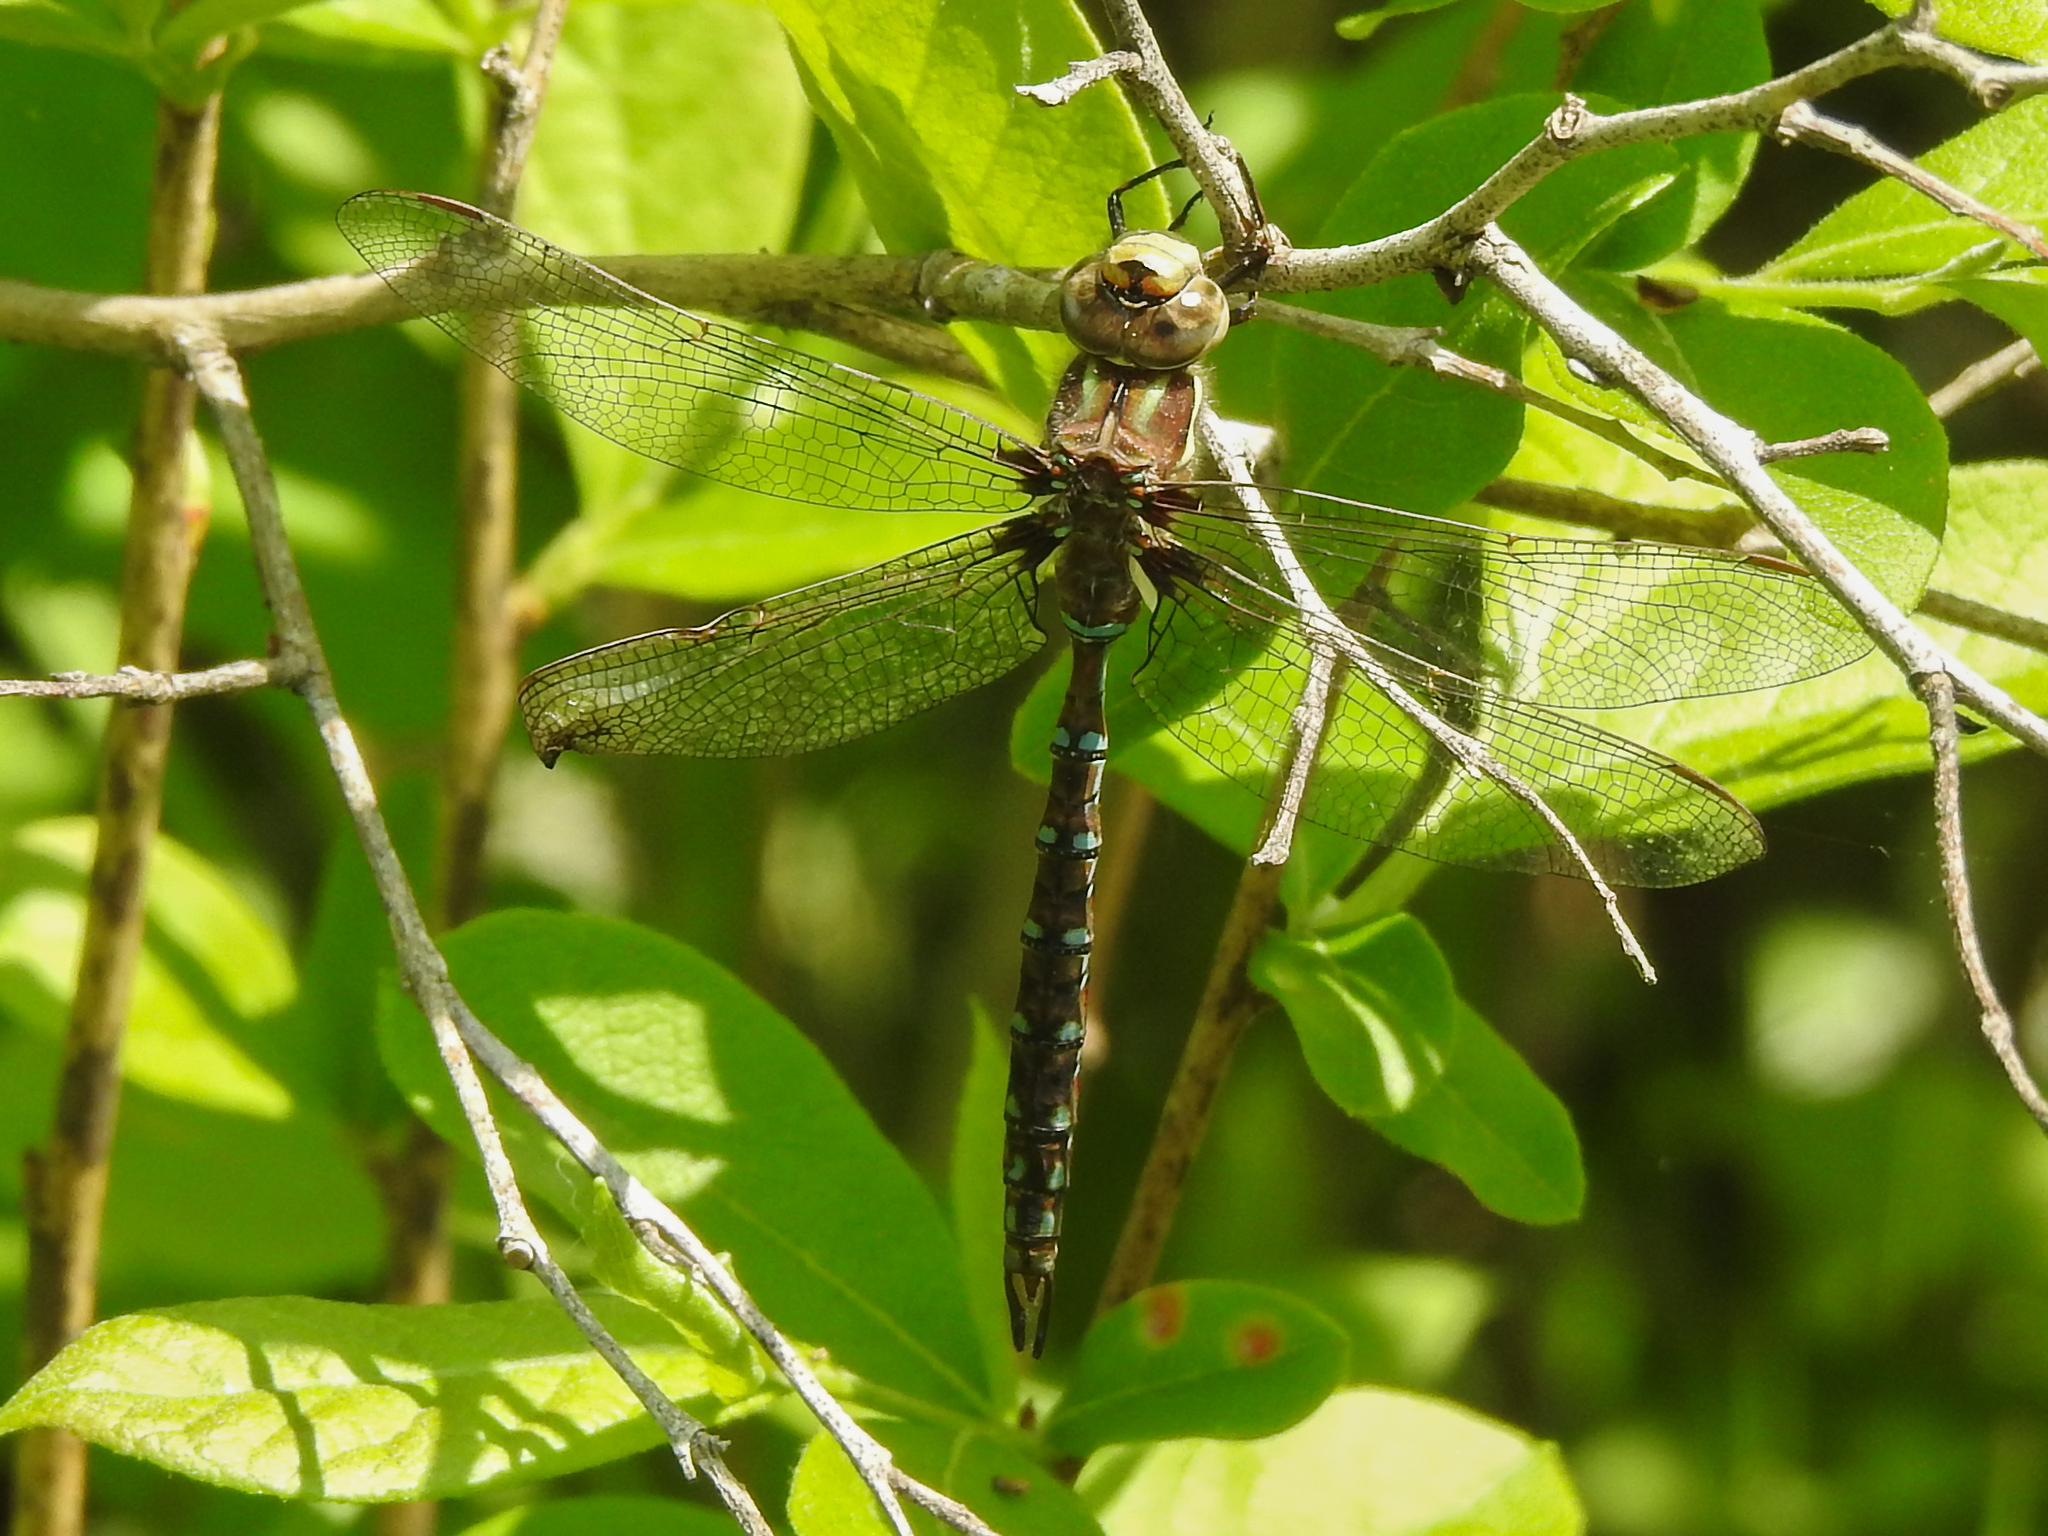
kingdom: Animalia
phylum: Arthropoda
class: Insecta
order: Odonata
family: Aeshnidae
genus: Basiaeschna
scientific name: Basiaeschna janata
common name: Springtime darner
